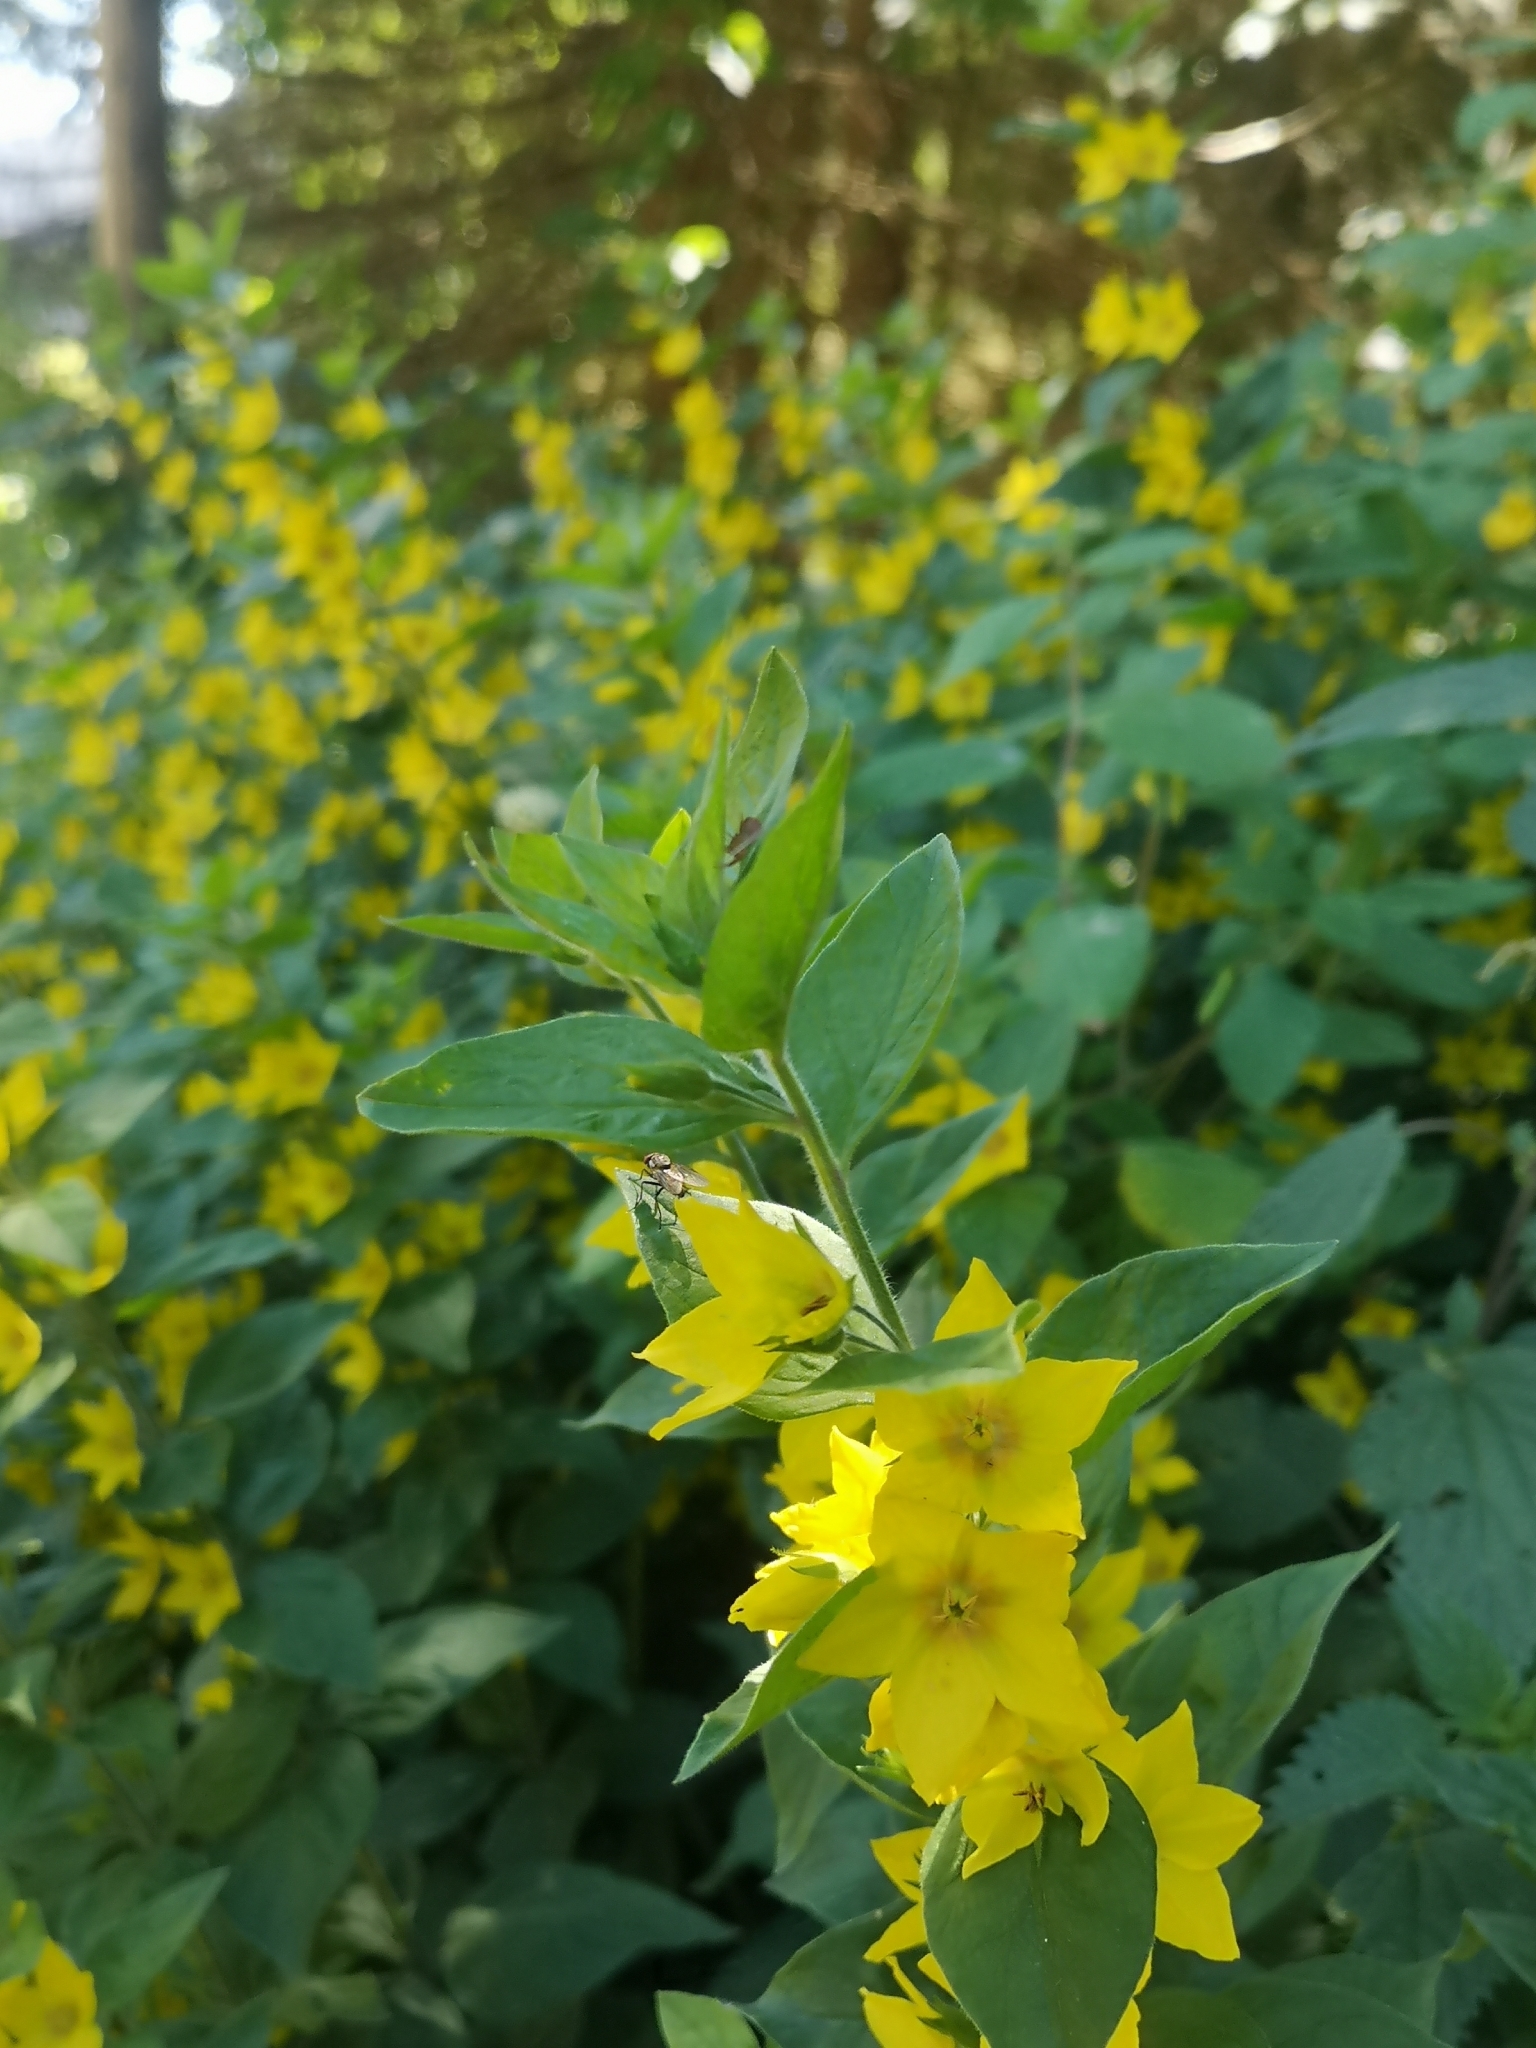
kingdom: Plantae
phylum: Tracheophyta
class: Magnoliopsida
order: Ericales
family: Primulaceae
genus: Lysimachia
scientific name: Lysimachia punctata
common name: Dotted loosestrife
